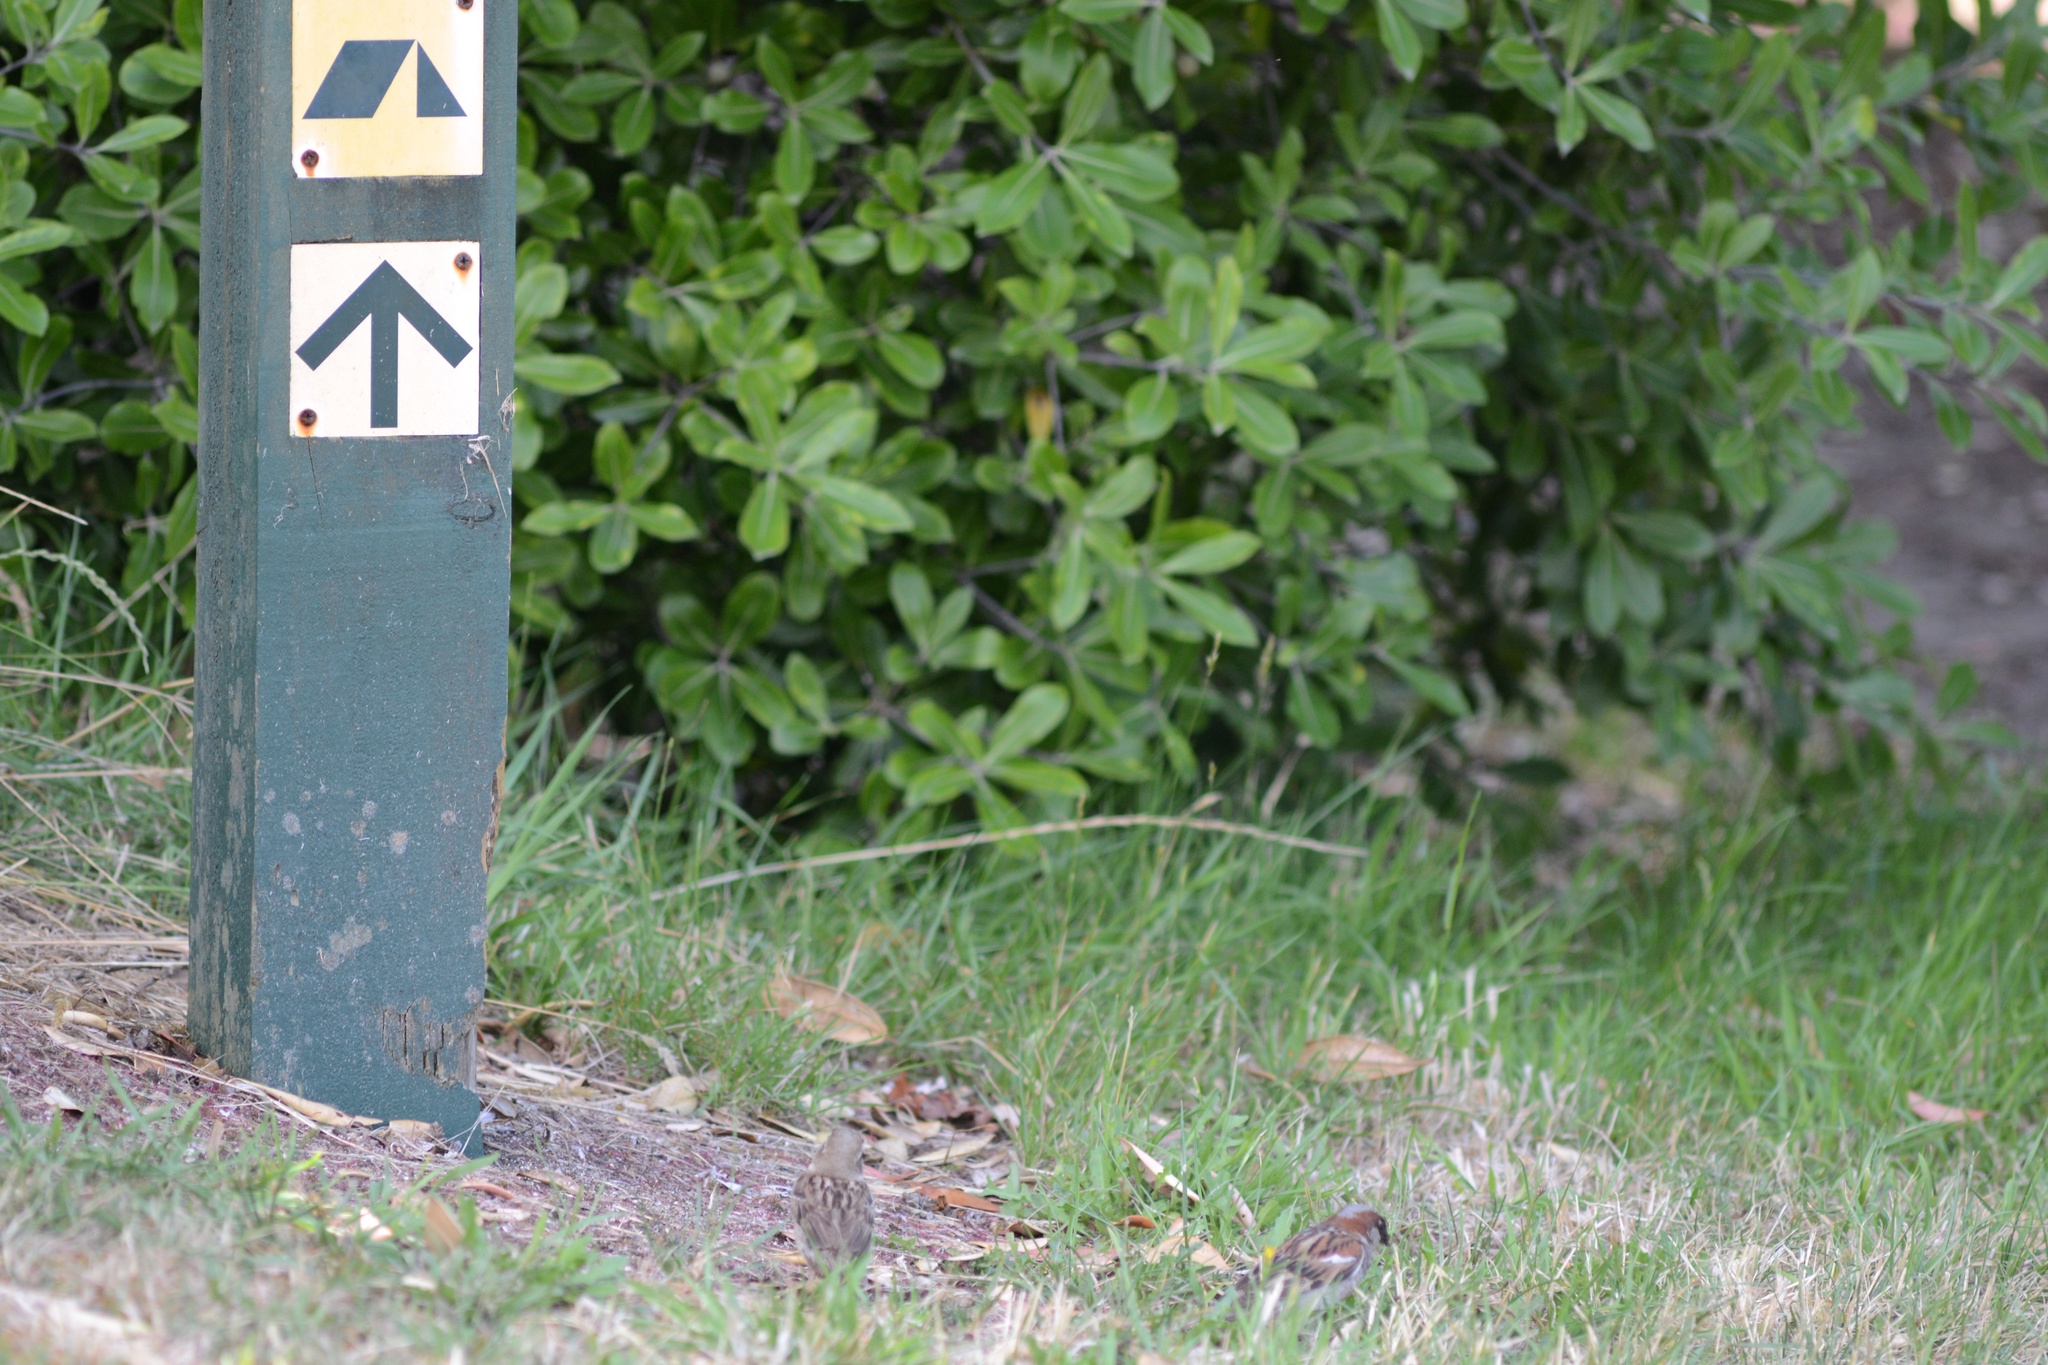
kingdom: Animalia
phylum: Chordata
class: Aves
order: Passeriformes
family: Passeridae
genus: Passer
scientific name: Passer domesticus
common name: House sparrow
